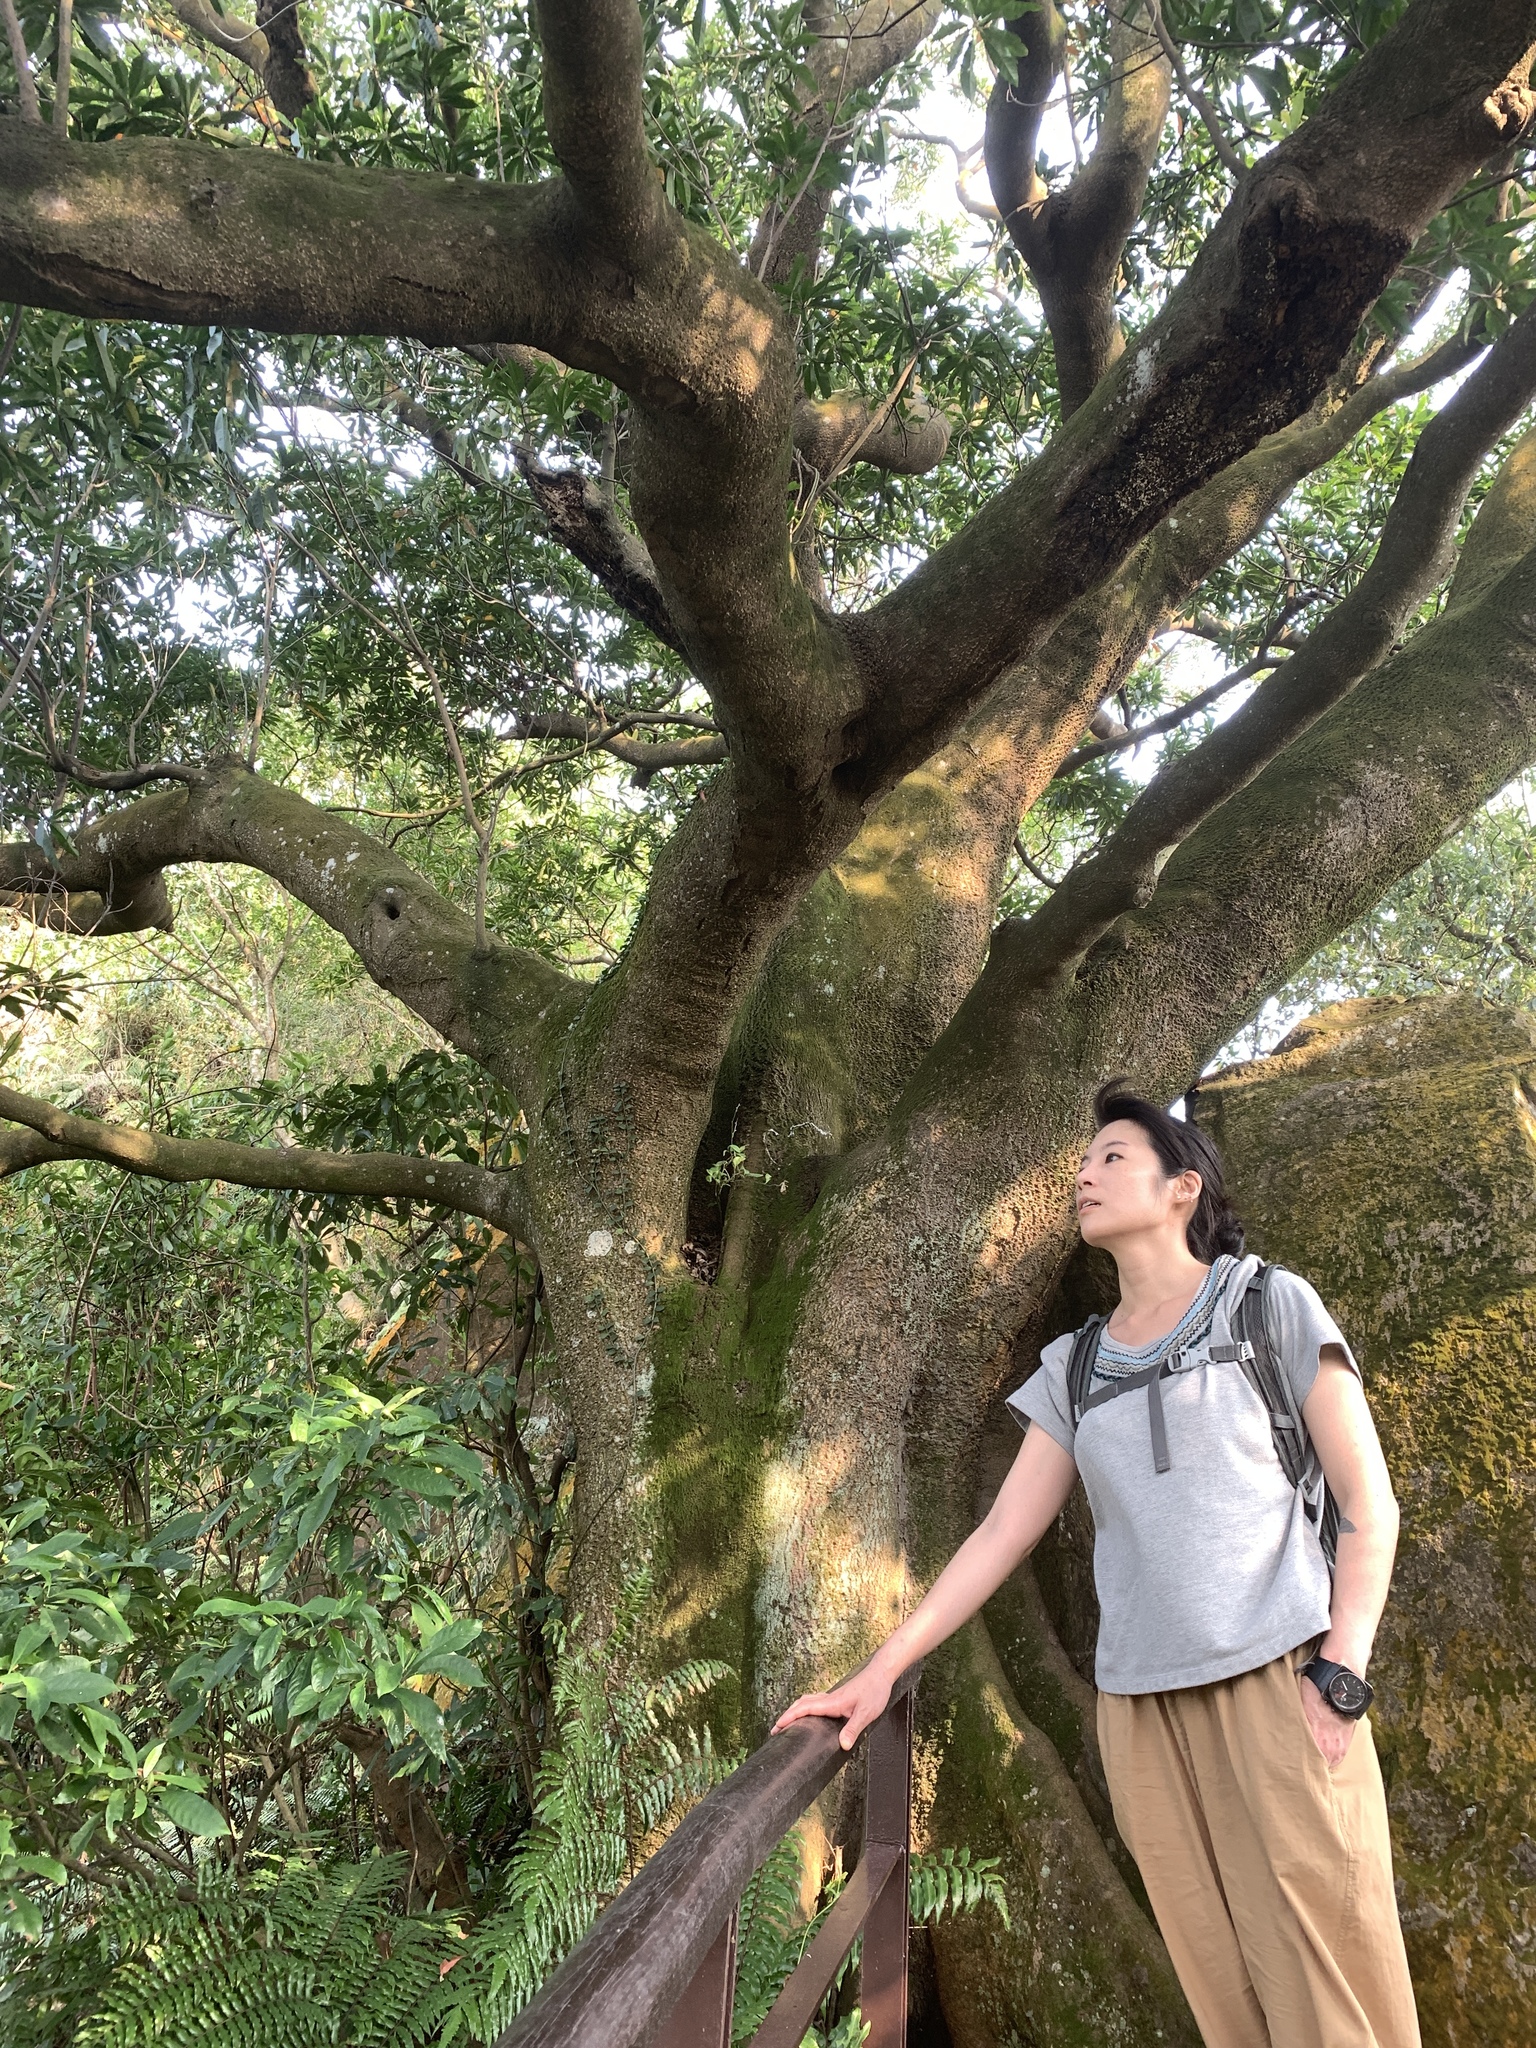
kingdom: Plantae
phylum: Tracheophyta
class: Magnoliopsida
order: Oxalidales
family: Elaeocarpaceae
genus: Elaeocarpus
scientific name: Elaeocarpus decipiens
